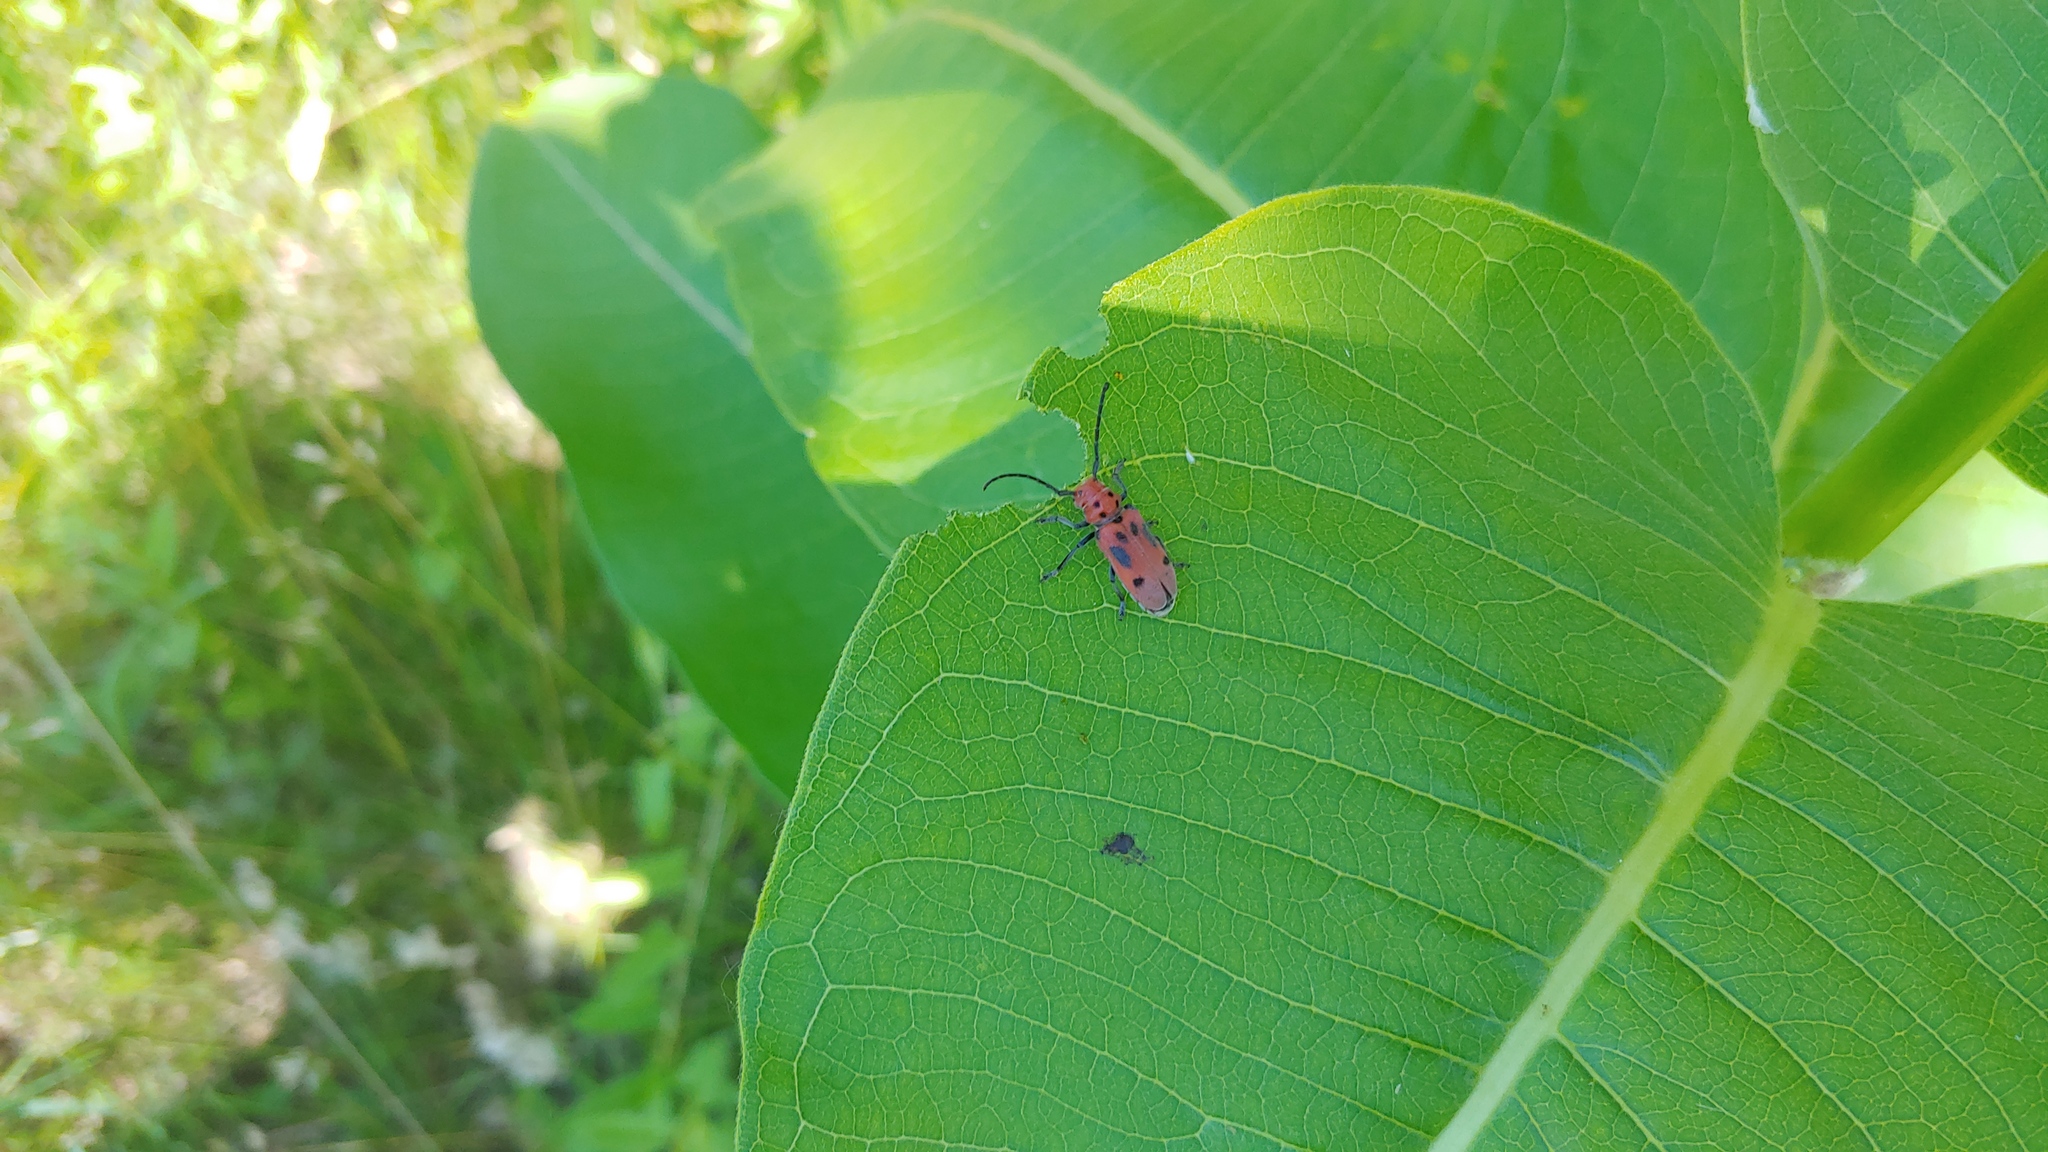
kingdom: Animalia
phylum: Arthropoda
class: Insecta
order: Coleoptera
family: Cerambycidae
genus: Tetraopes
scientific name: Tetraopes tetrophthalmus
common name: Red milkweed beetle
